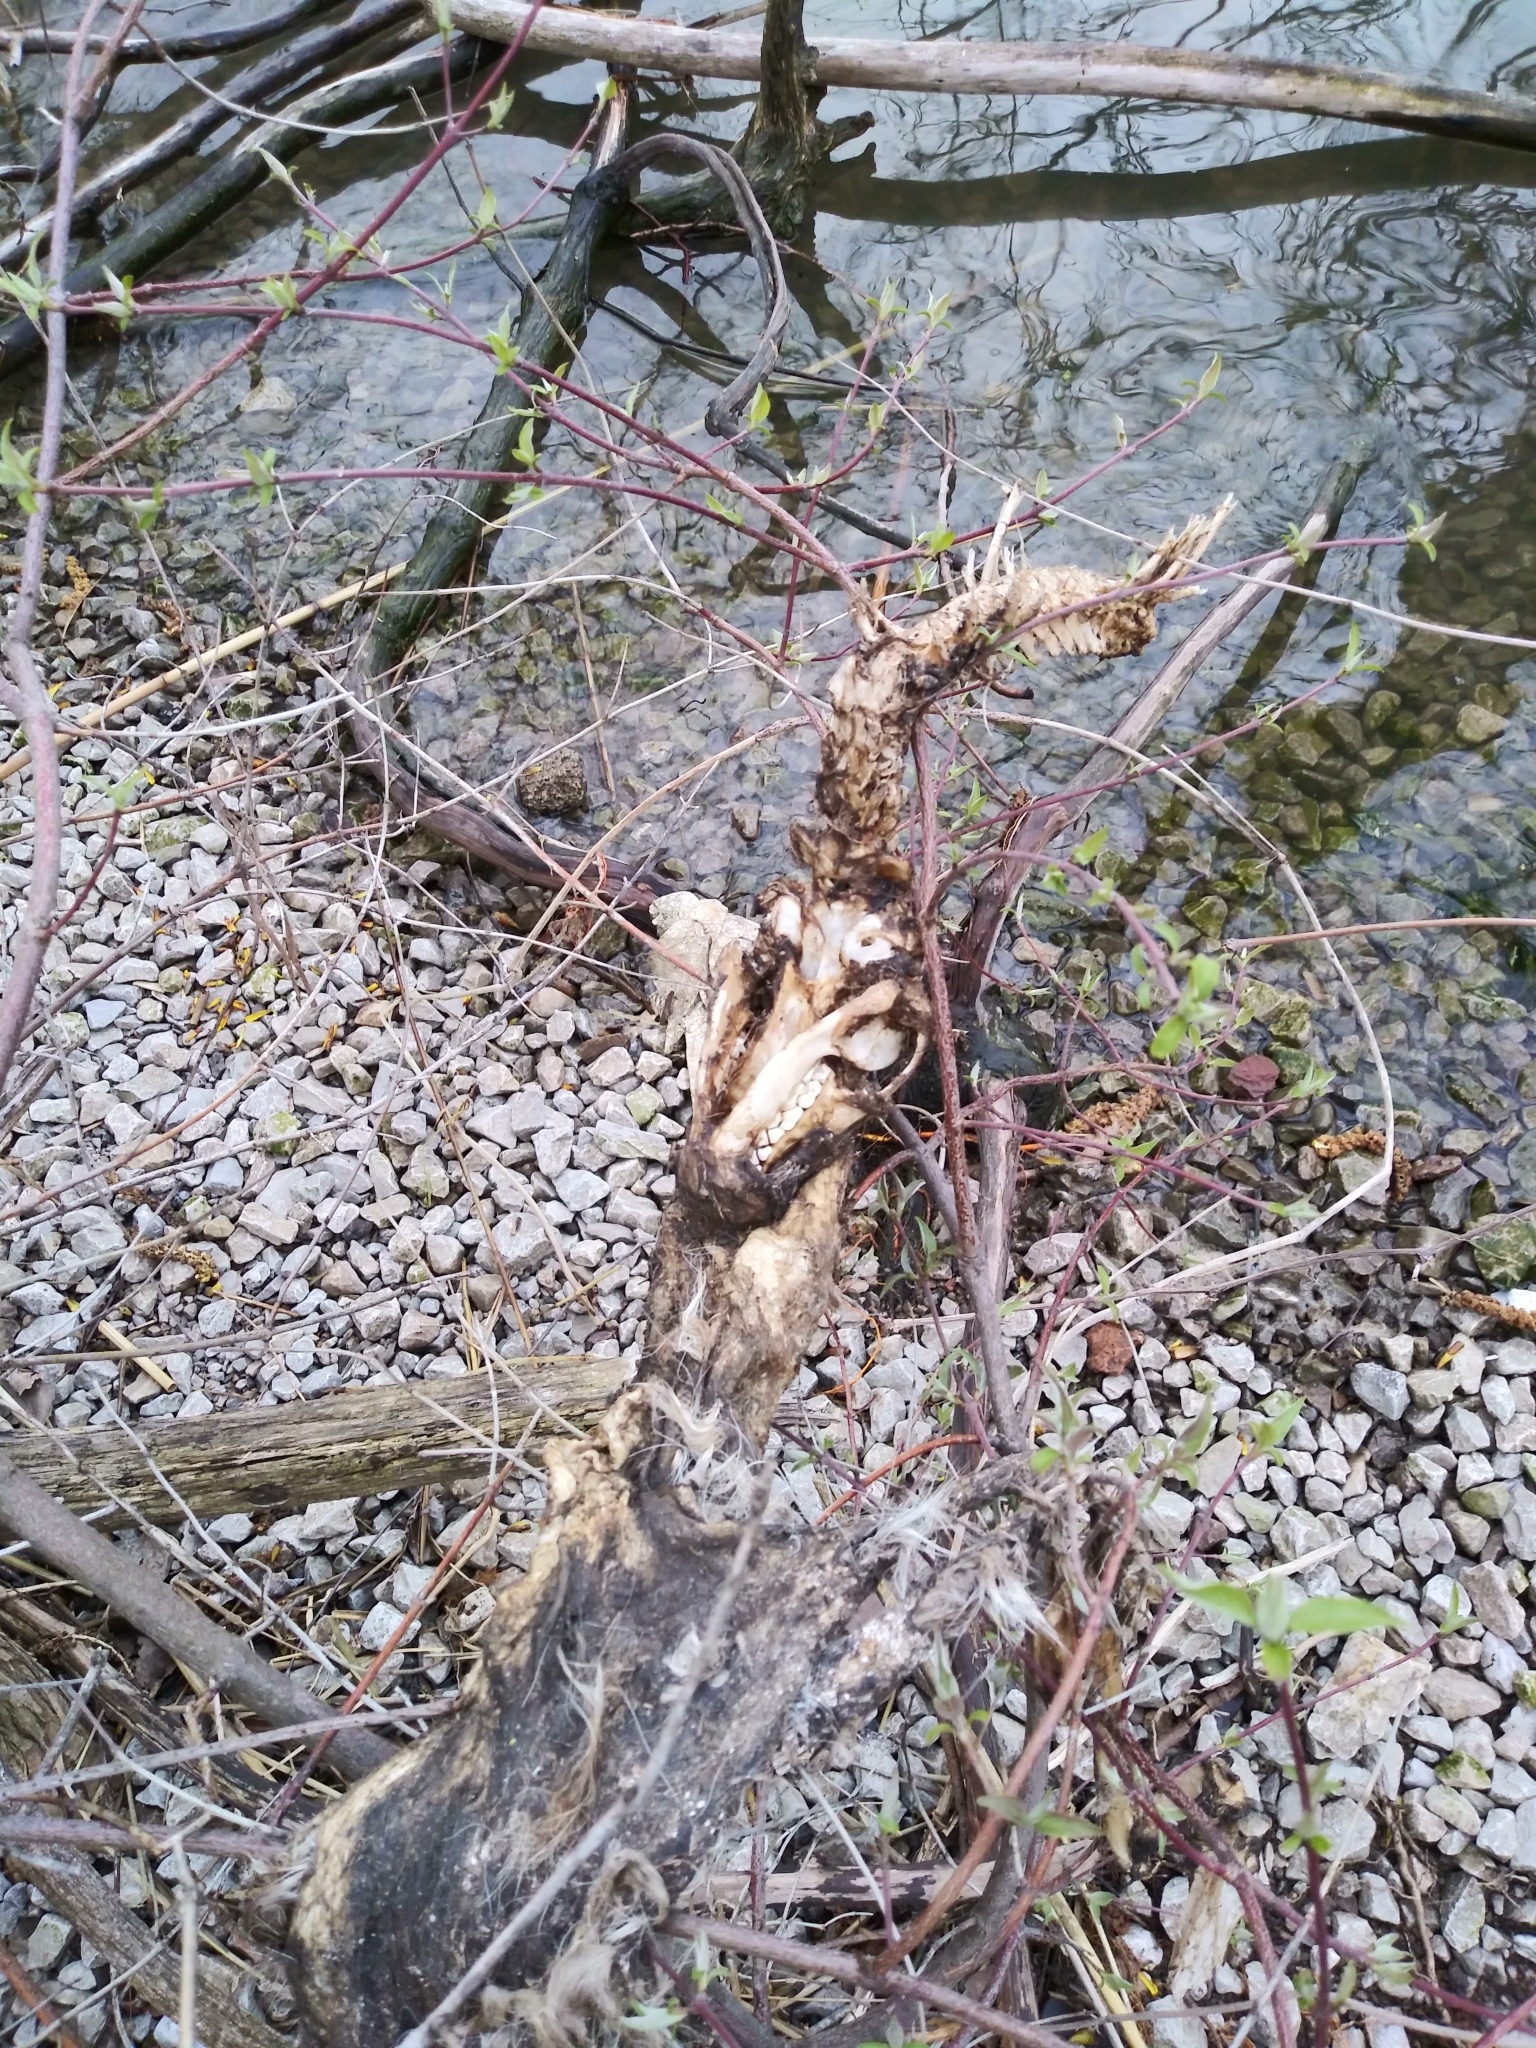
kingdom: Animalia
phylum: Chordata
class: Mammalia
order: Artiodactyla
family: Cervidae
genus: Odocoileus
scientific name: Odocoileus virginianus
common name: White-tailed deer
